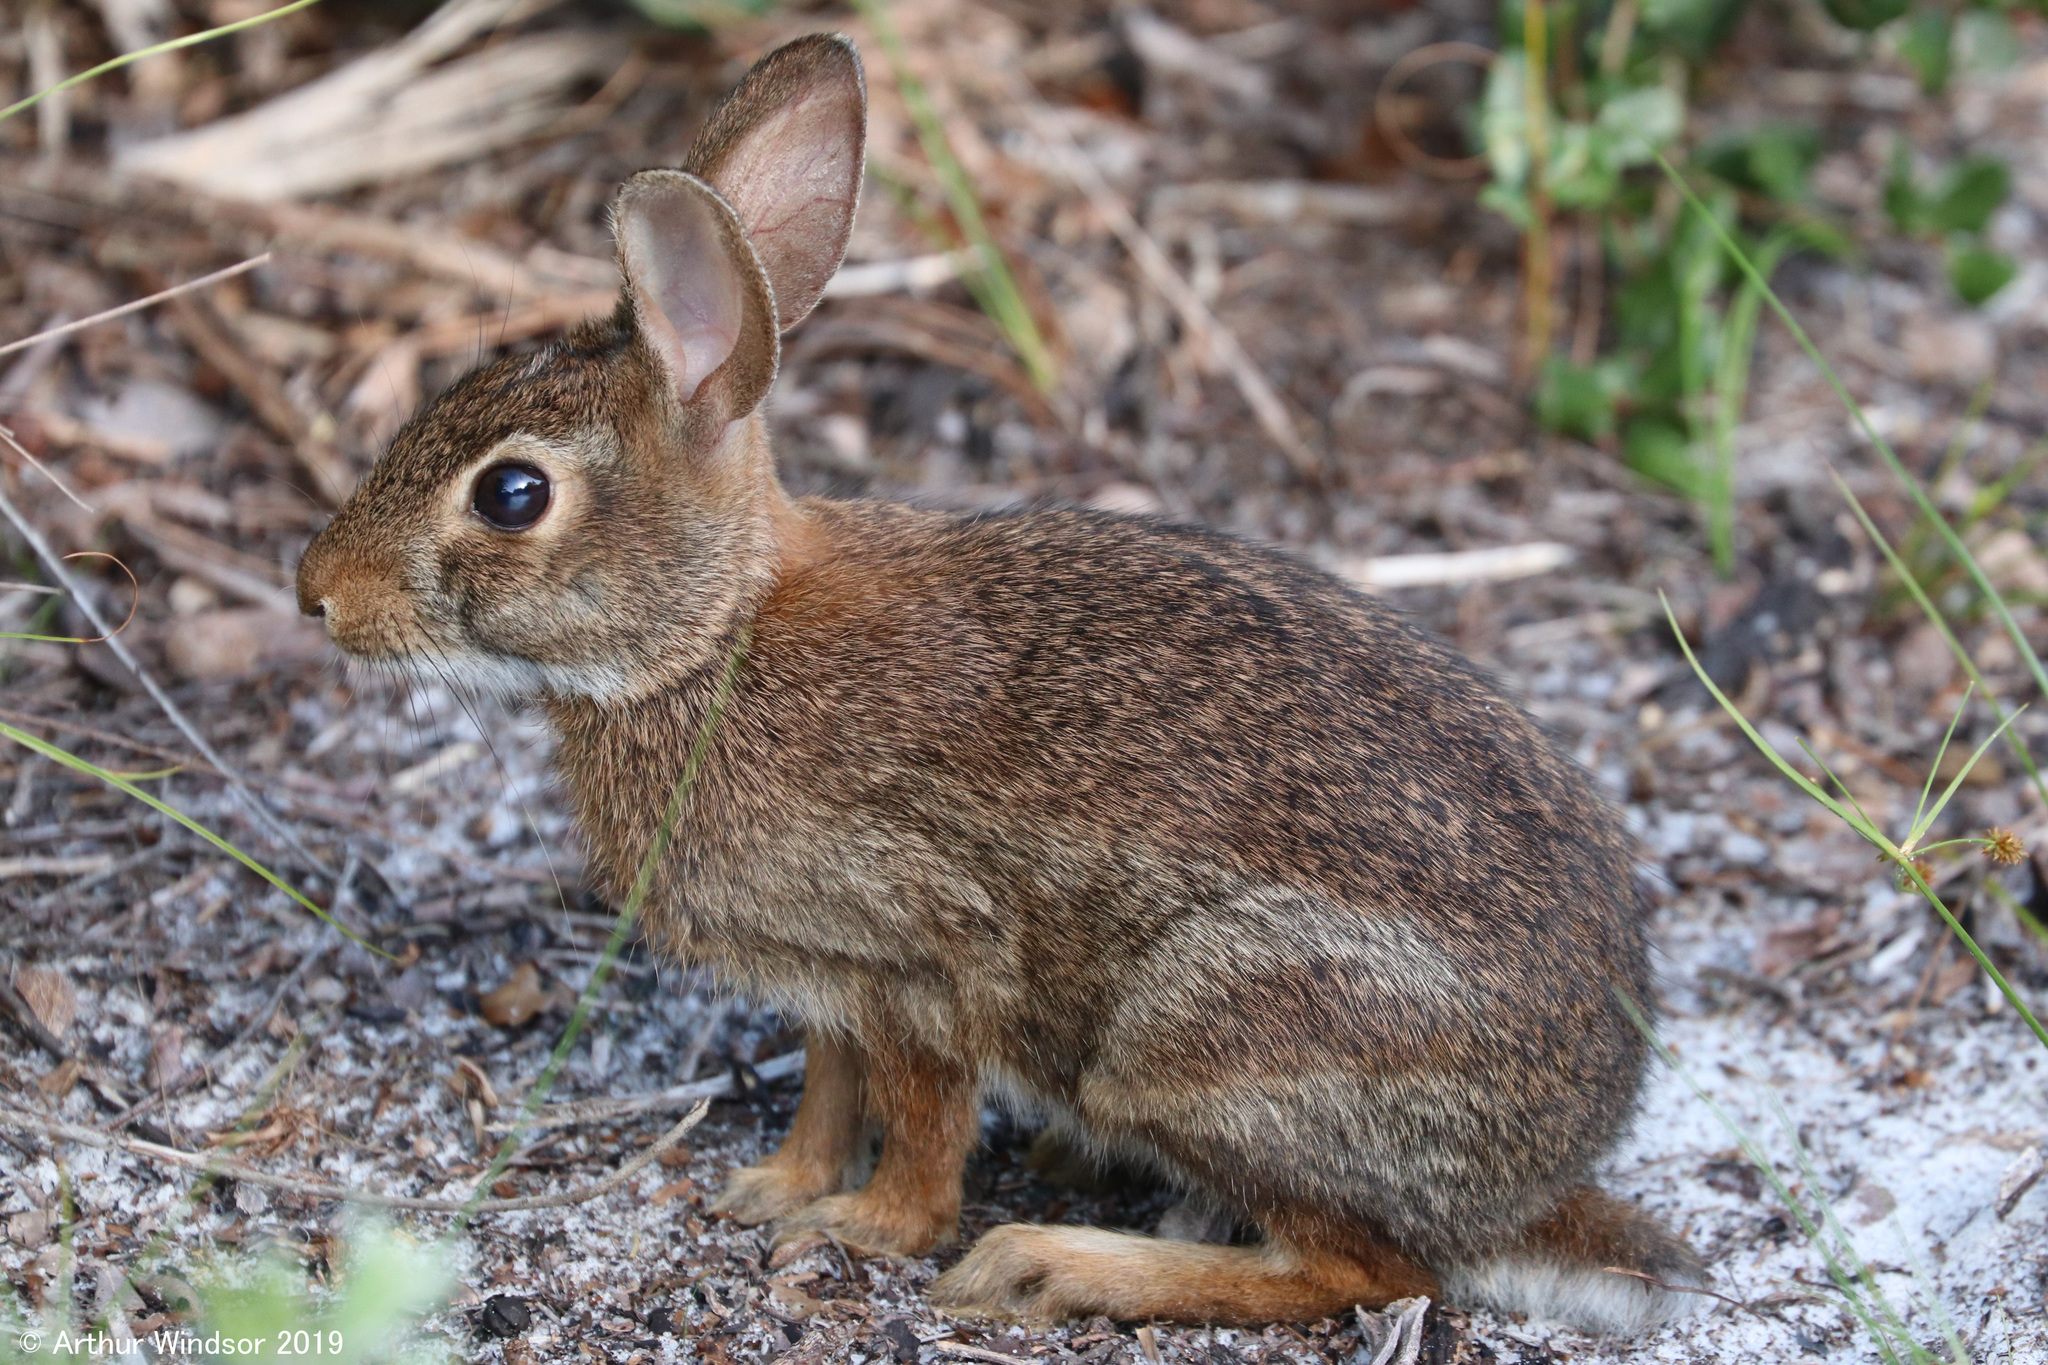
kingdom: Animalia
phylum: Chordata
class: Mammalia
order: Lagomorpha
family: Leporidae
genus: Sylvilagus
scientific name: Sylvilagus floridanus
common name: Eastern cottontail
